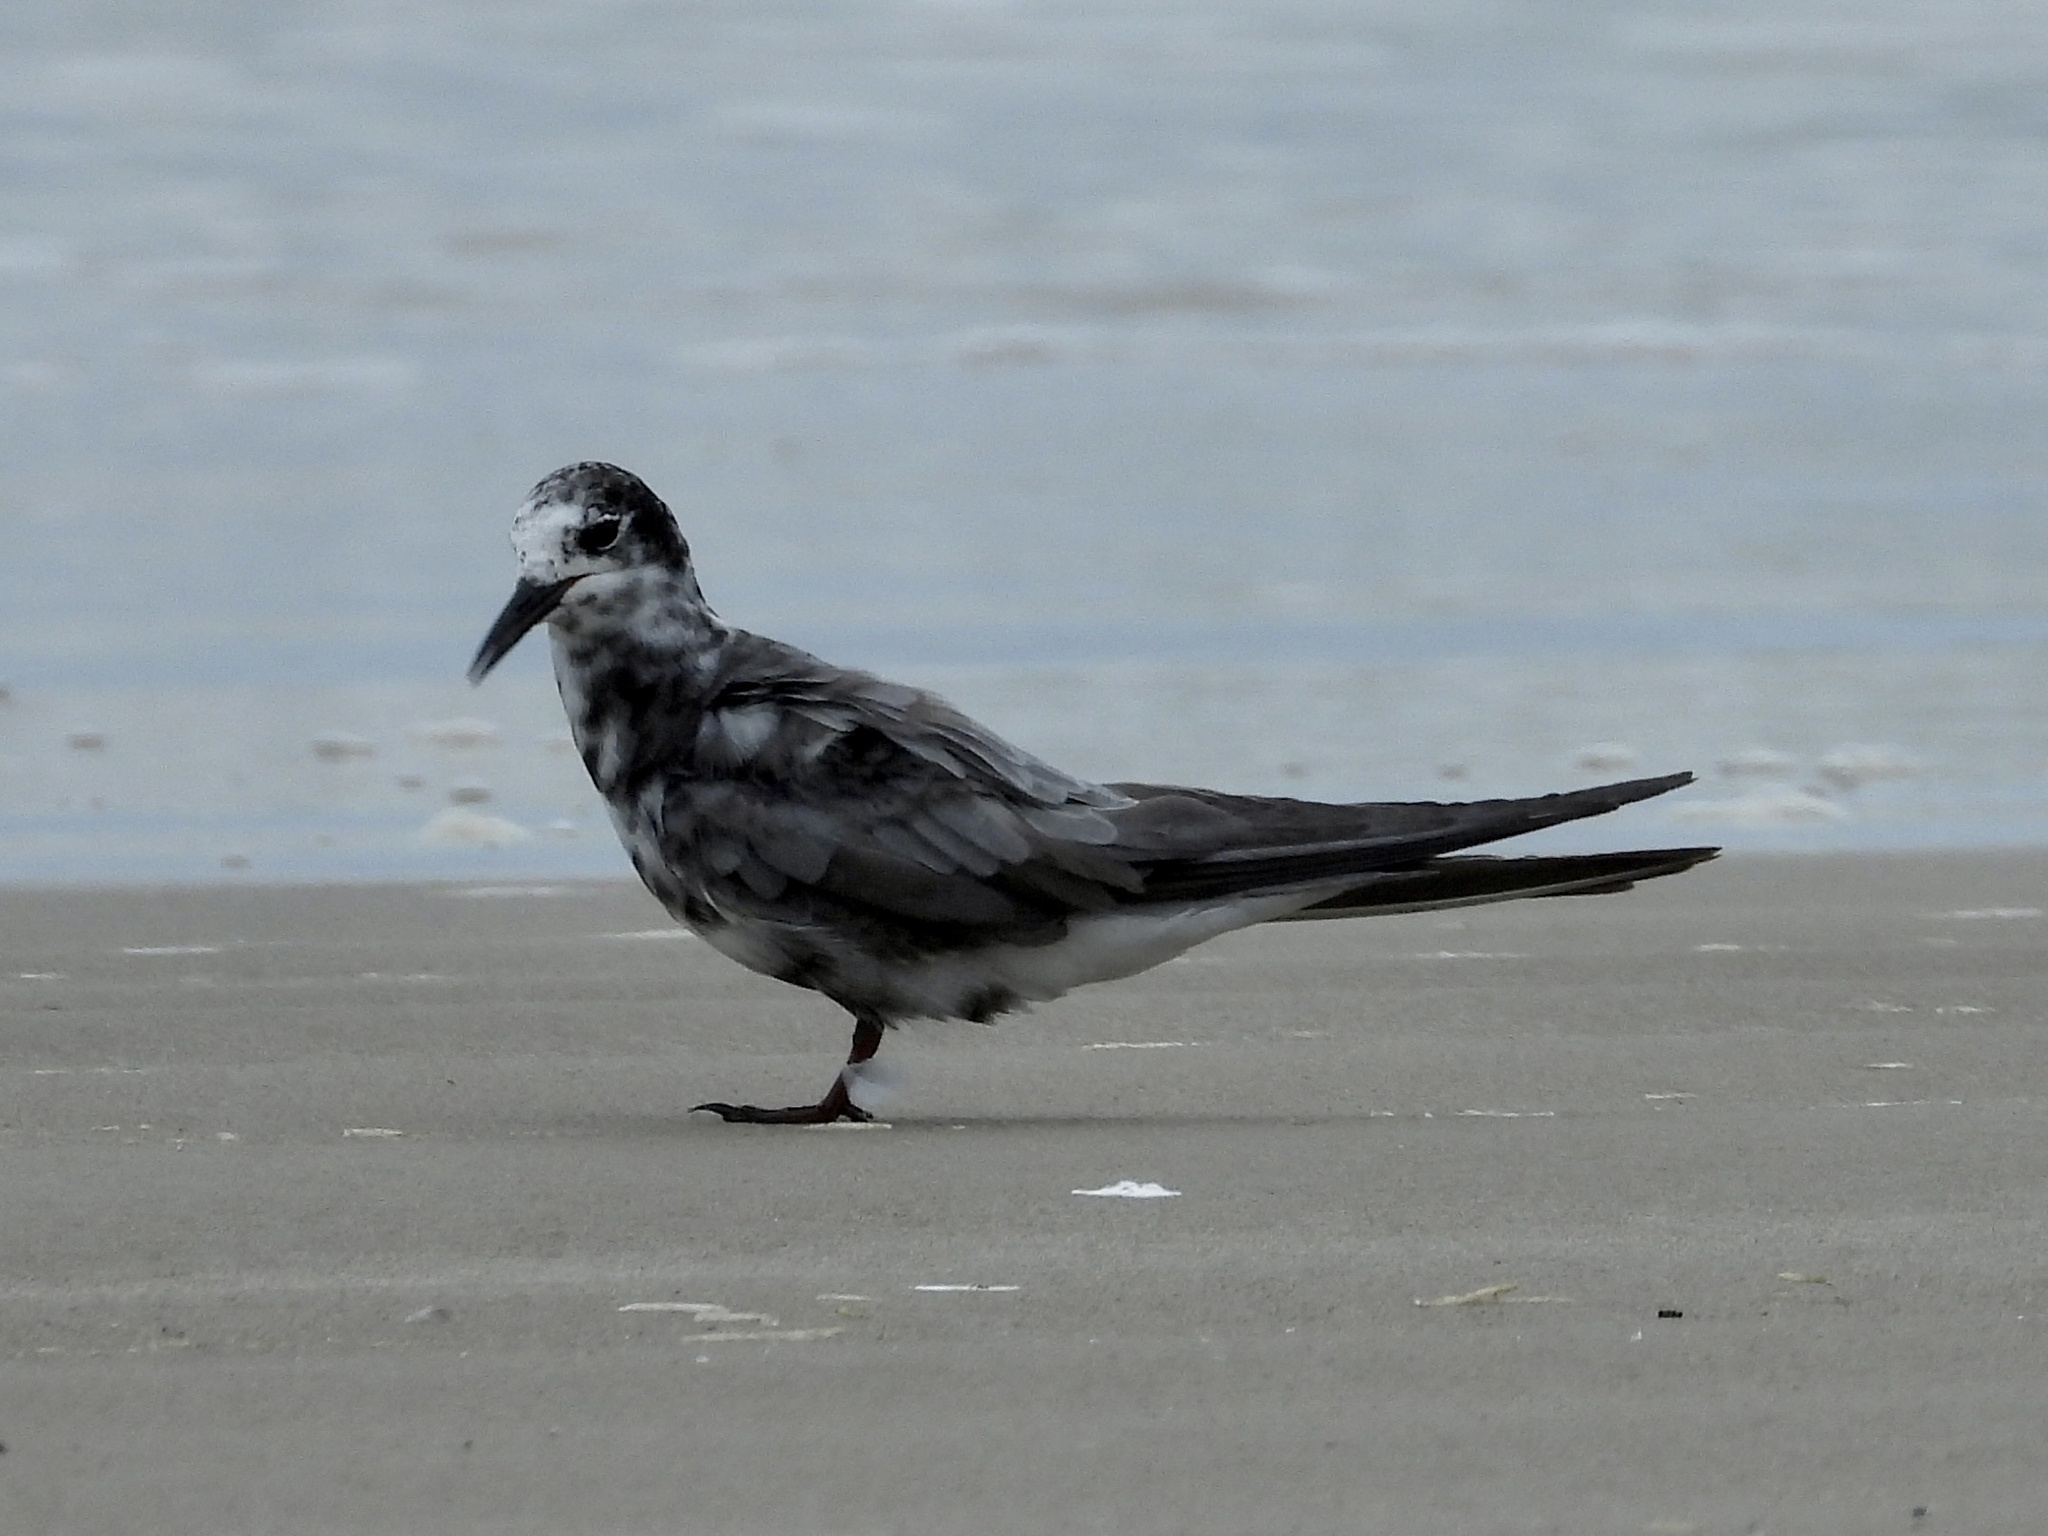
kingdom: Animalia
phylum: Chordata
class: Aves
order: Charadriiformes
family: Laridae
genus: Chlidonias
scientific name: Chlidonias niger
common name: Black tern
